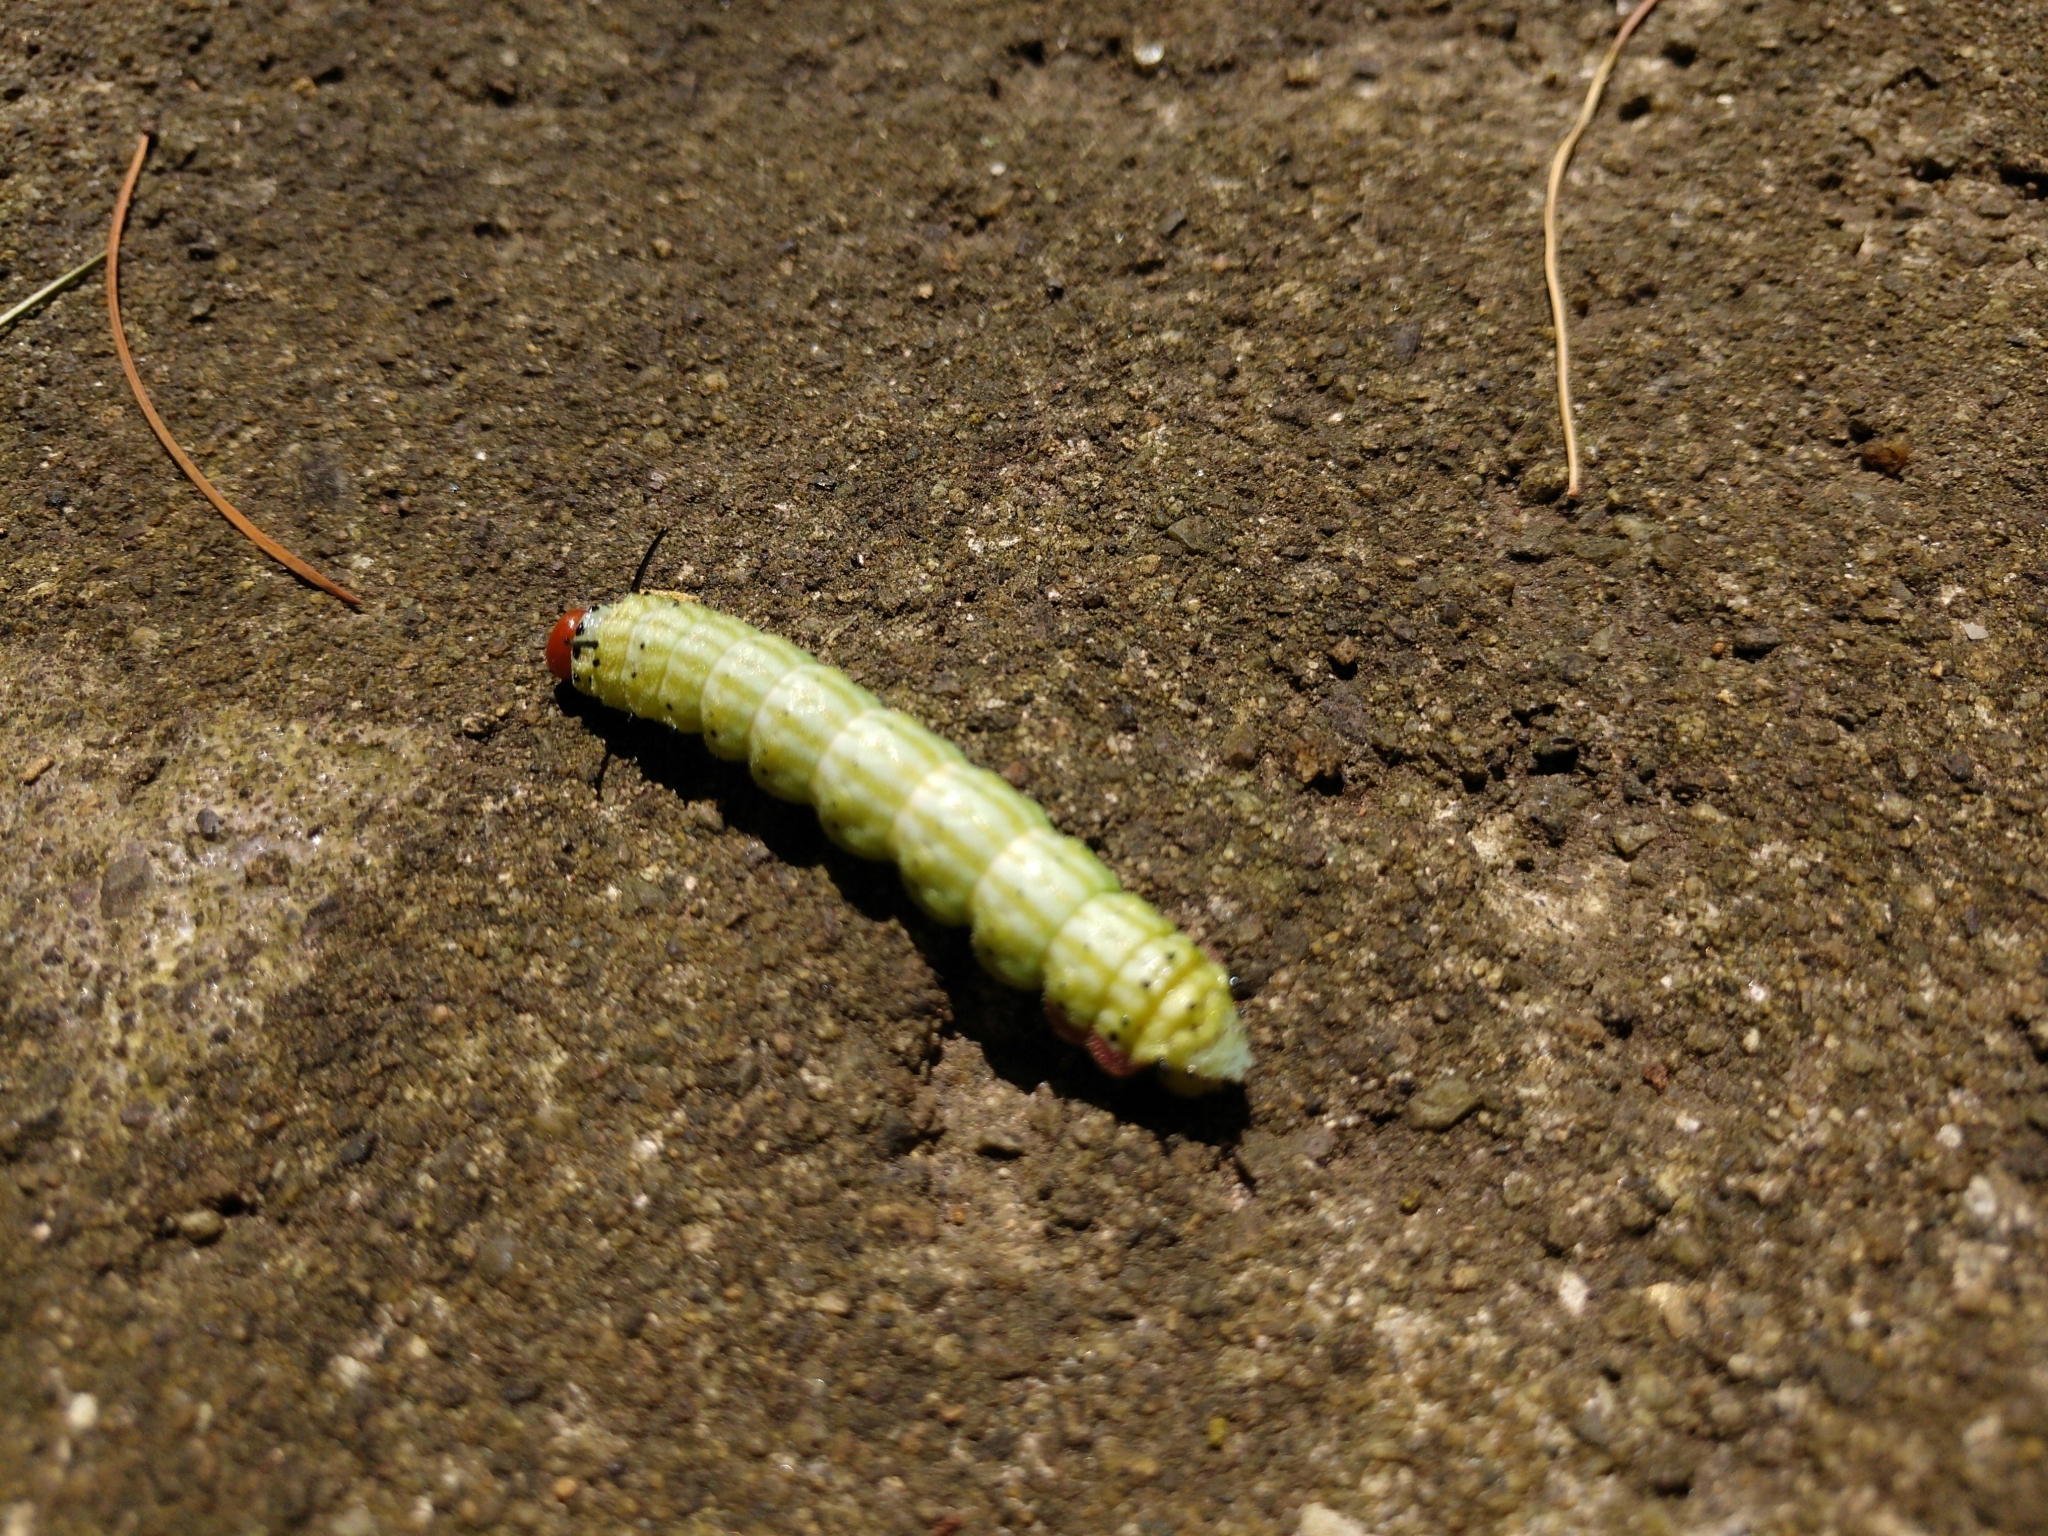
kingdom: Animalia
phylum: Arthropoda
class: Insecta
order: Lepidoptera
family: Saturniidae
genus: Dryocampa
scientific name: Dryocampa rubicunda
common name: Rosy maple moth
